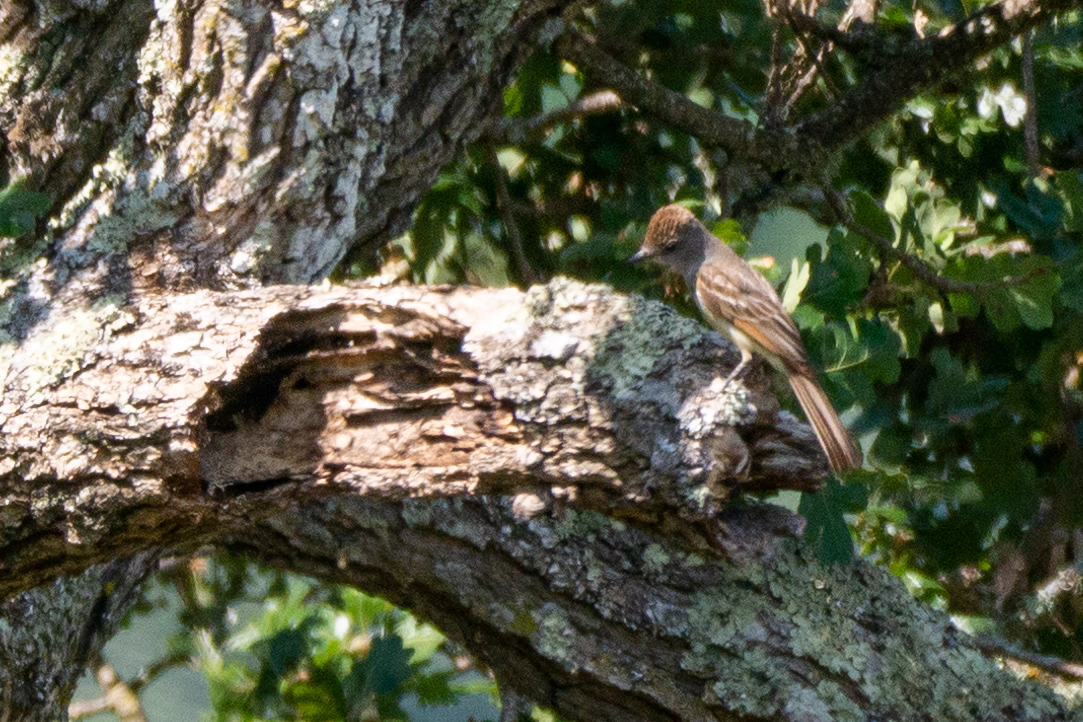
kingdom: Animalia
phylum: Chordata
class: Aves
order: Passeriformes
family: Tyrannidae
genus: Myiarchus
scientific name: Myiarchus cinerascens
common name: Ash-throated flycatcher
